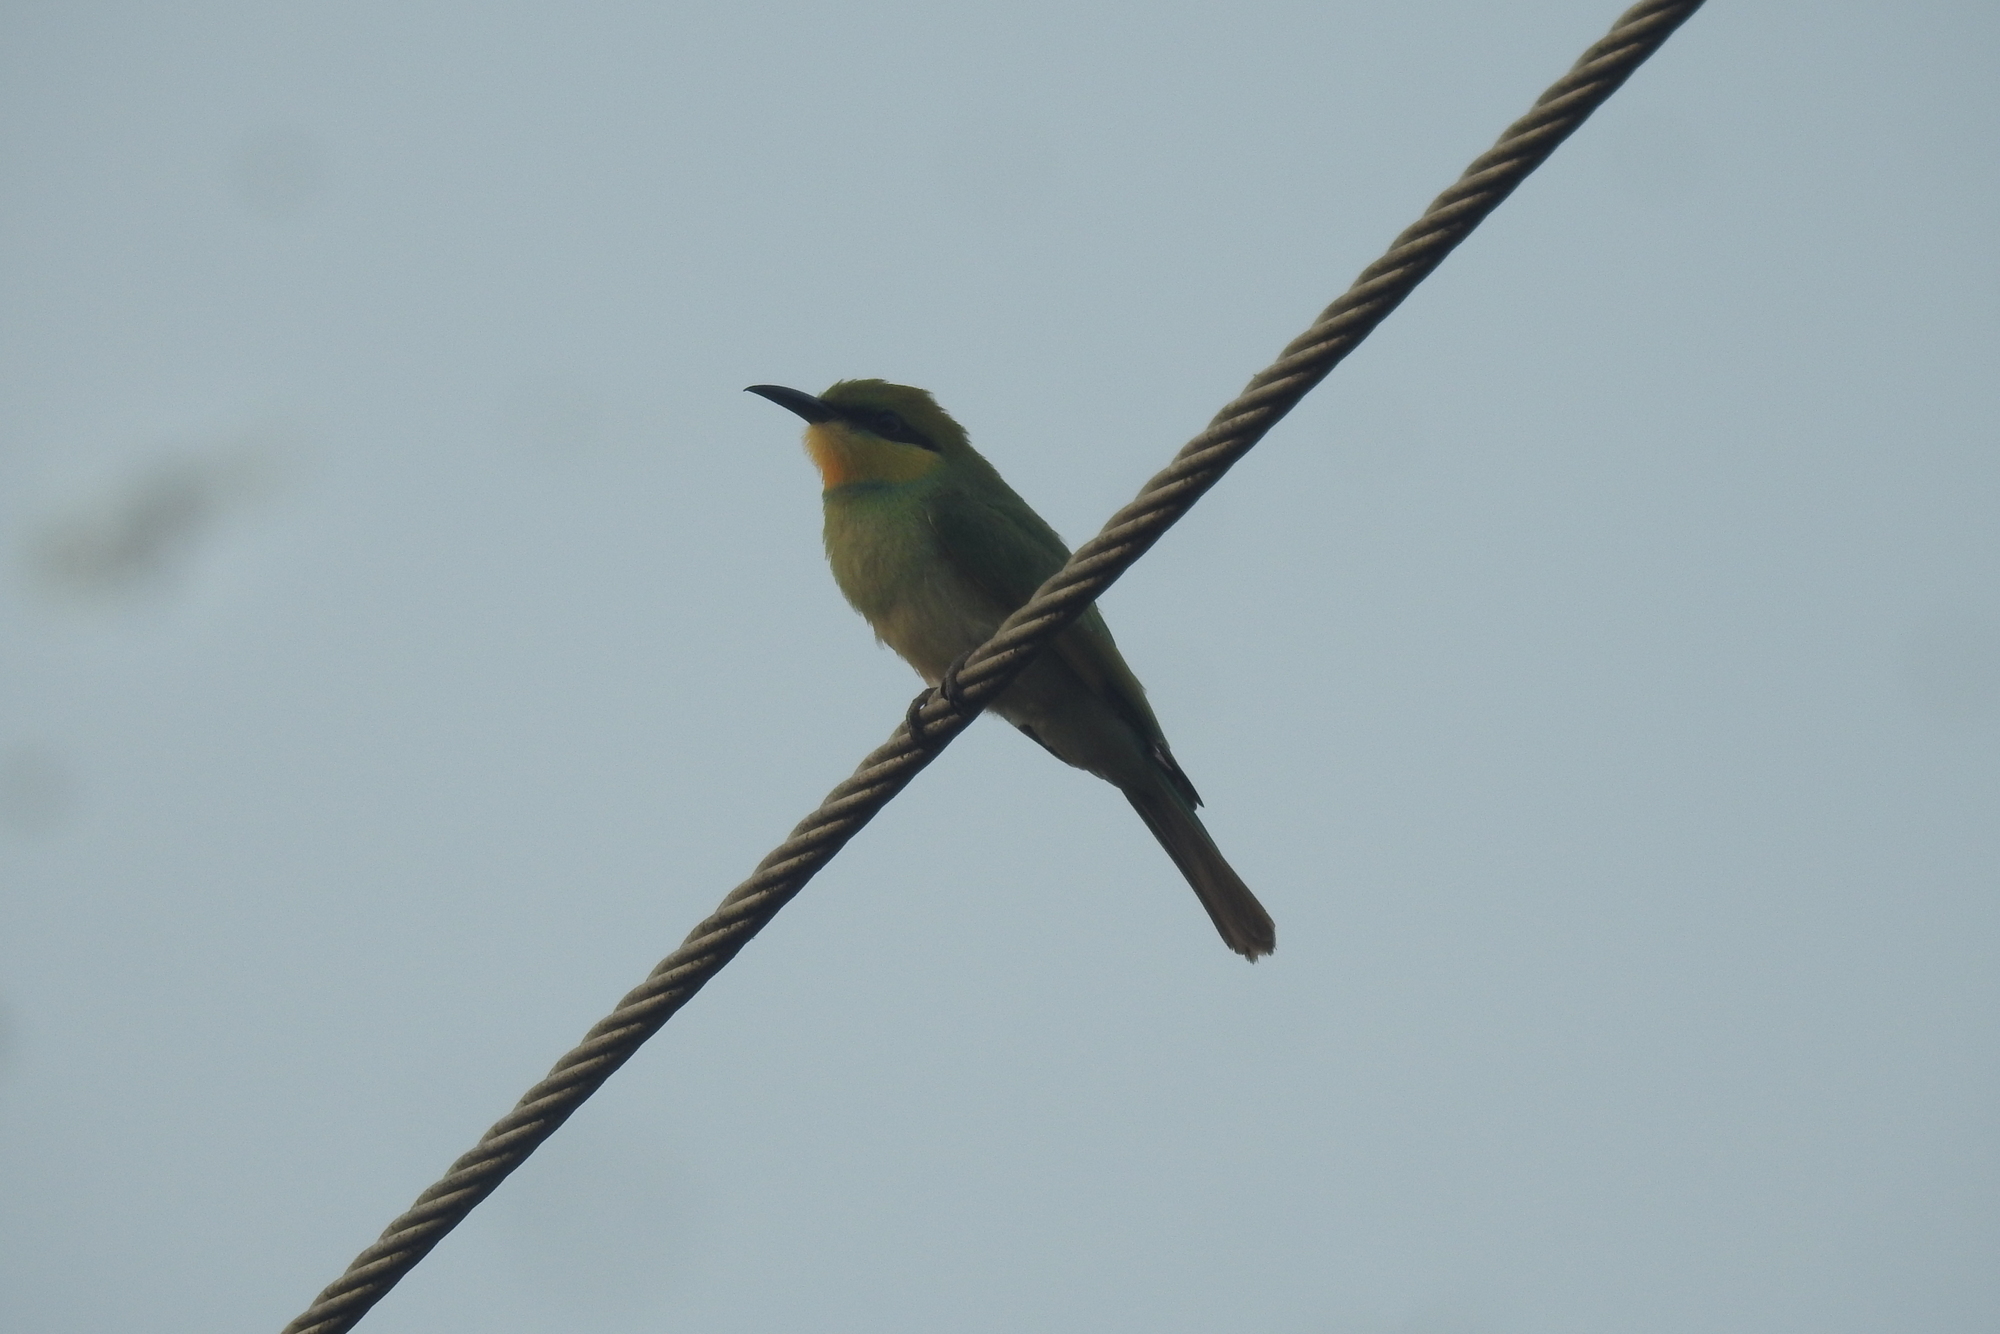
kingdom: Animalia
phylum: Chordata
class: Aves
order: Coraciiformes
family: Meropidae
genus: Merops
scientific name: Merops orientalis
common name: Green bee-eater
